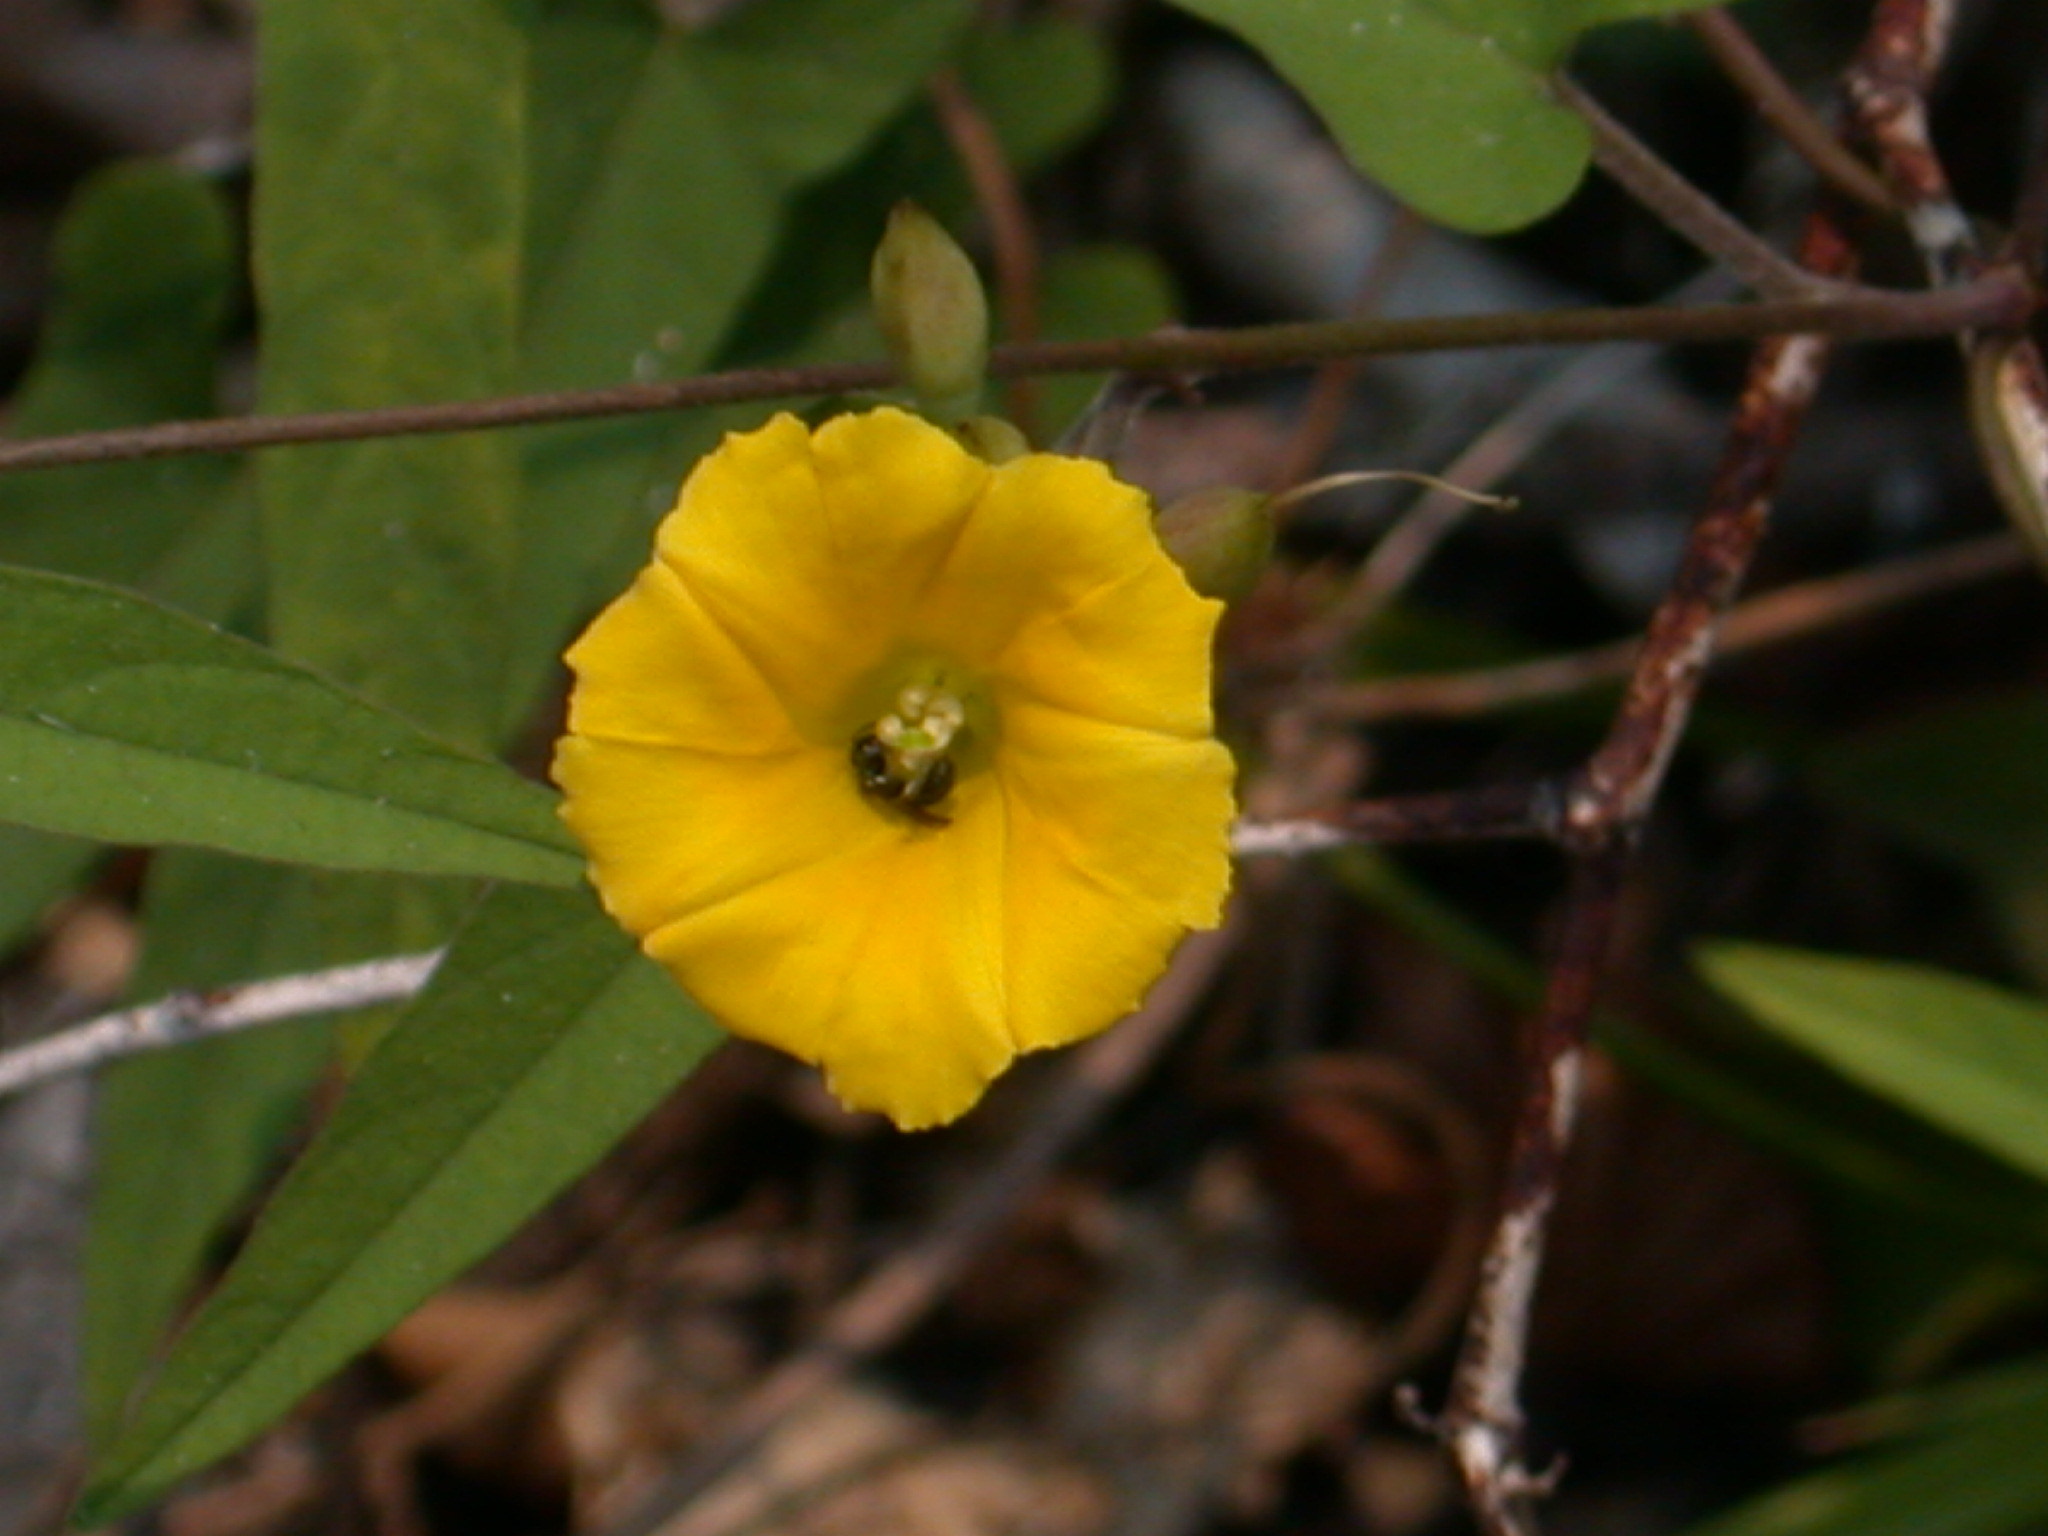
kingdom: Plantae
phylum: Tracheophyta
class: Magnoliopsida
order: Solanales
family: Convolvulaceae
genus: Camonea
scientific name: Camonea umbellata
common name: Hogvine
